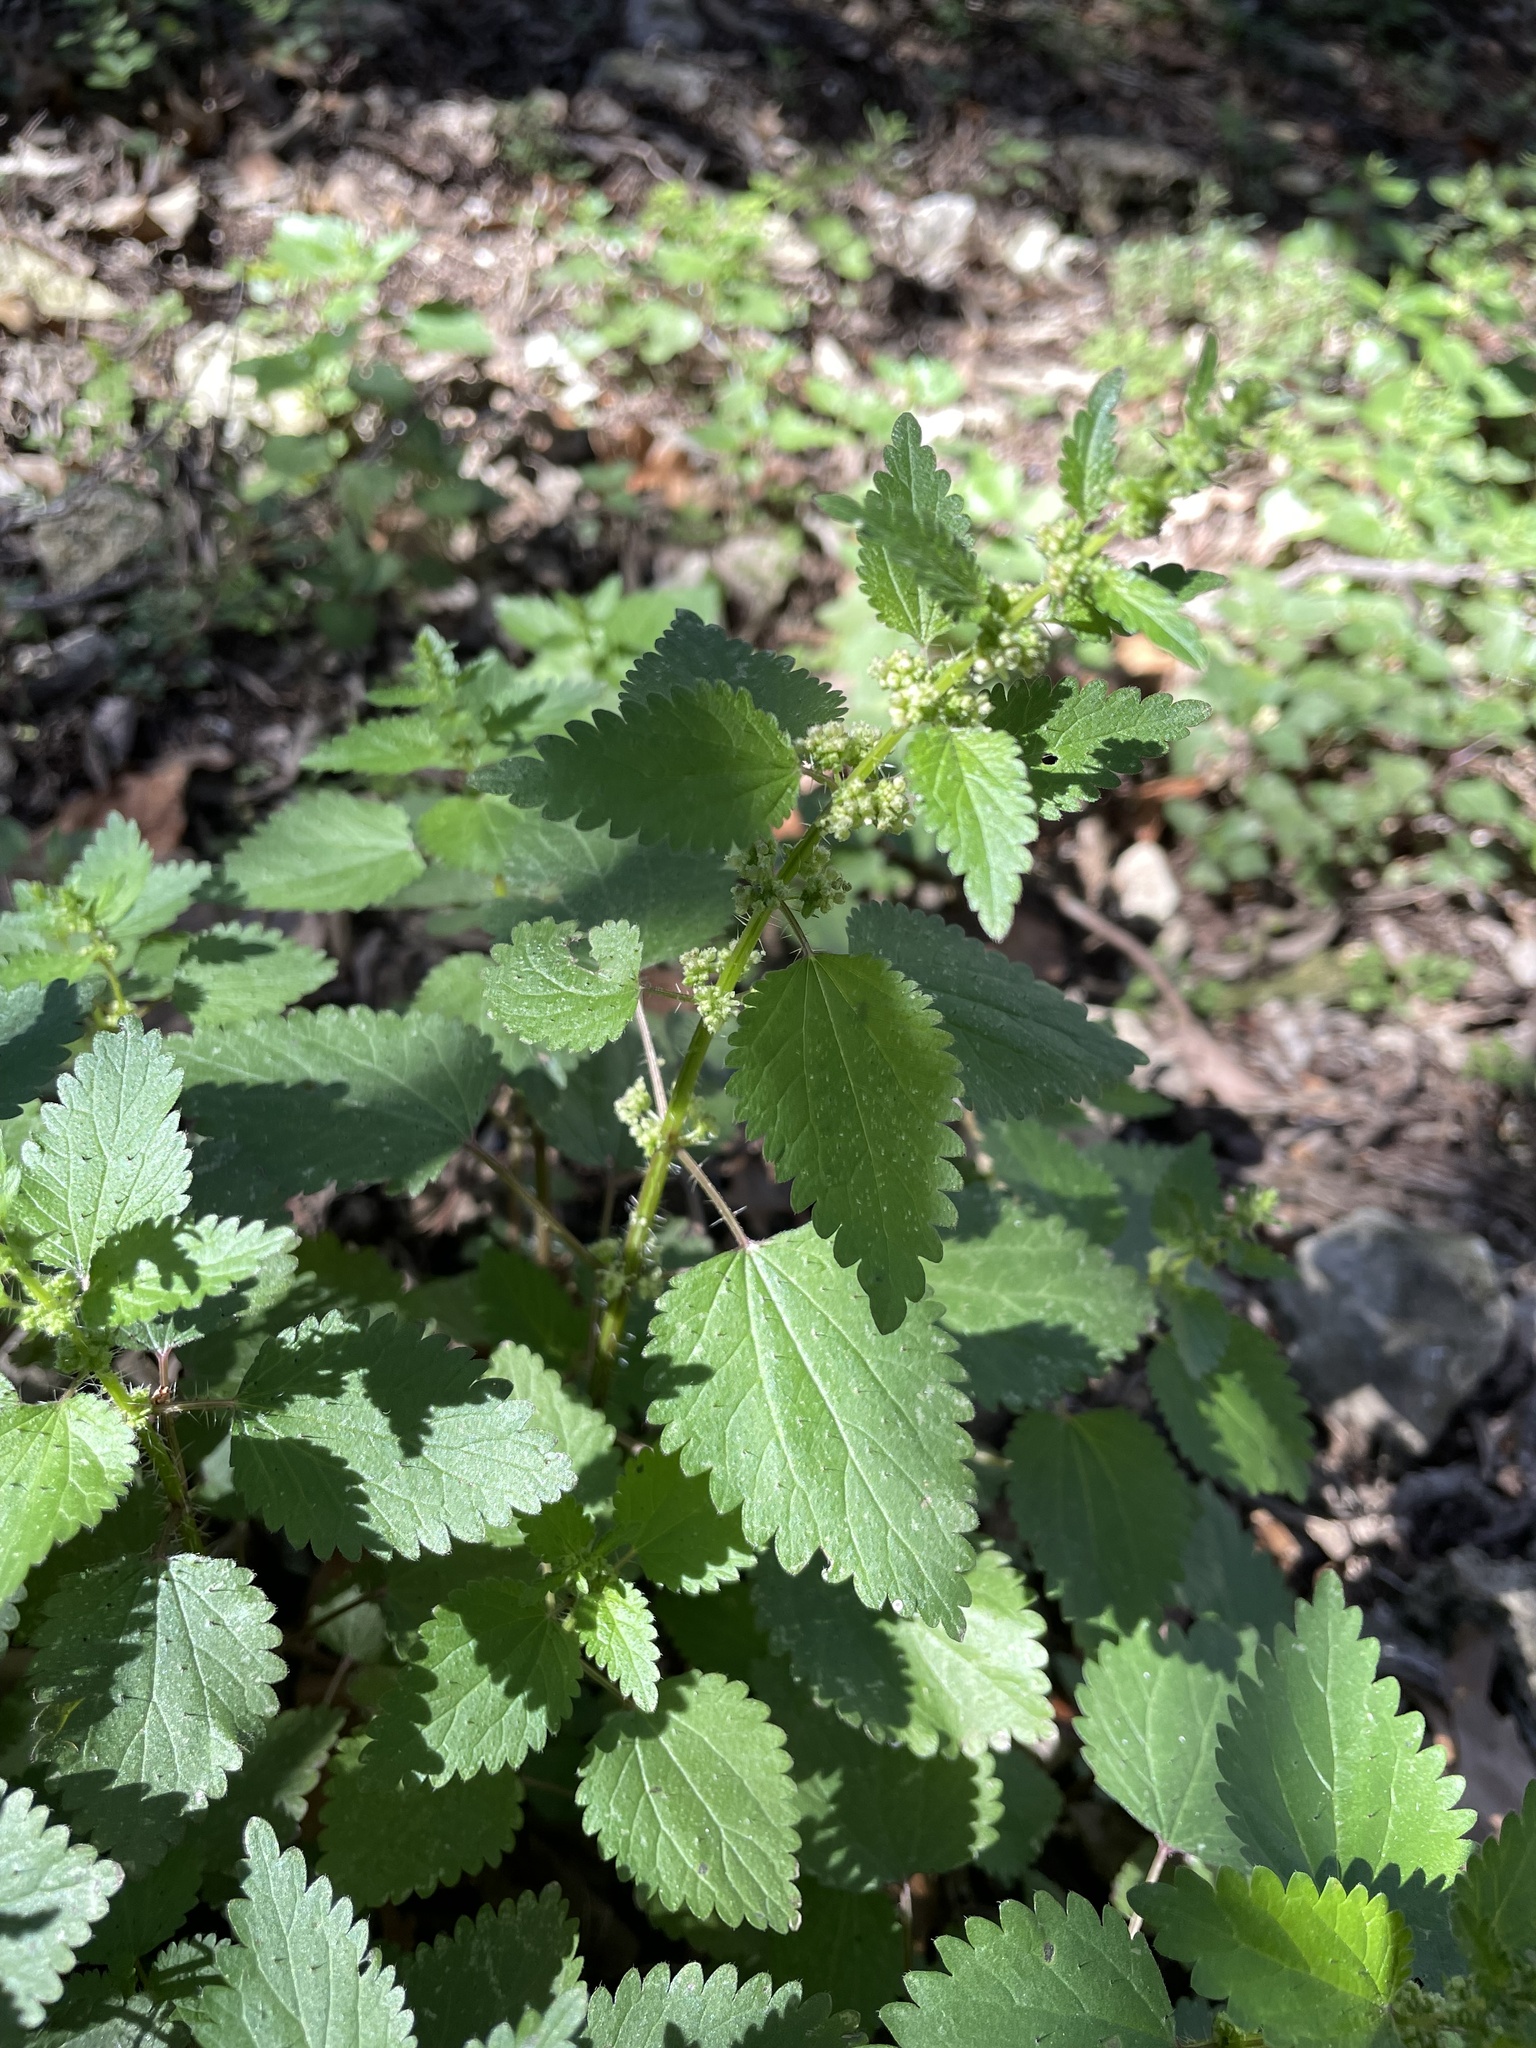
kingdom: Plantae
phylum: Tracheophyta
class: Magnoliopsida
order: Rosales
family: Urticaceae
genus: Urtica
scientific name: Urtica chamaedryoides
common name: Heart-leaf nettle
